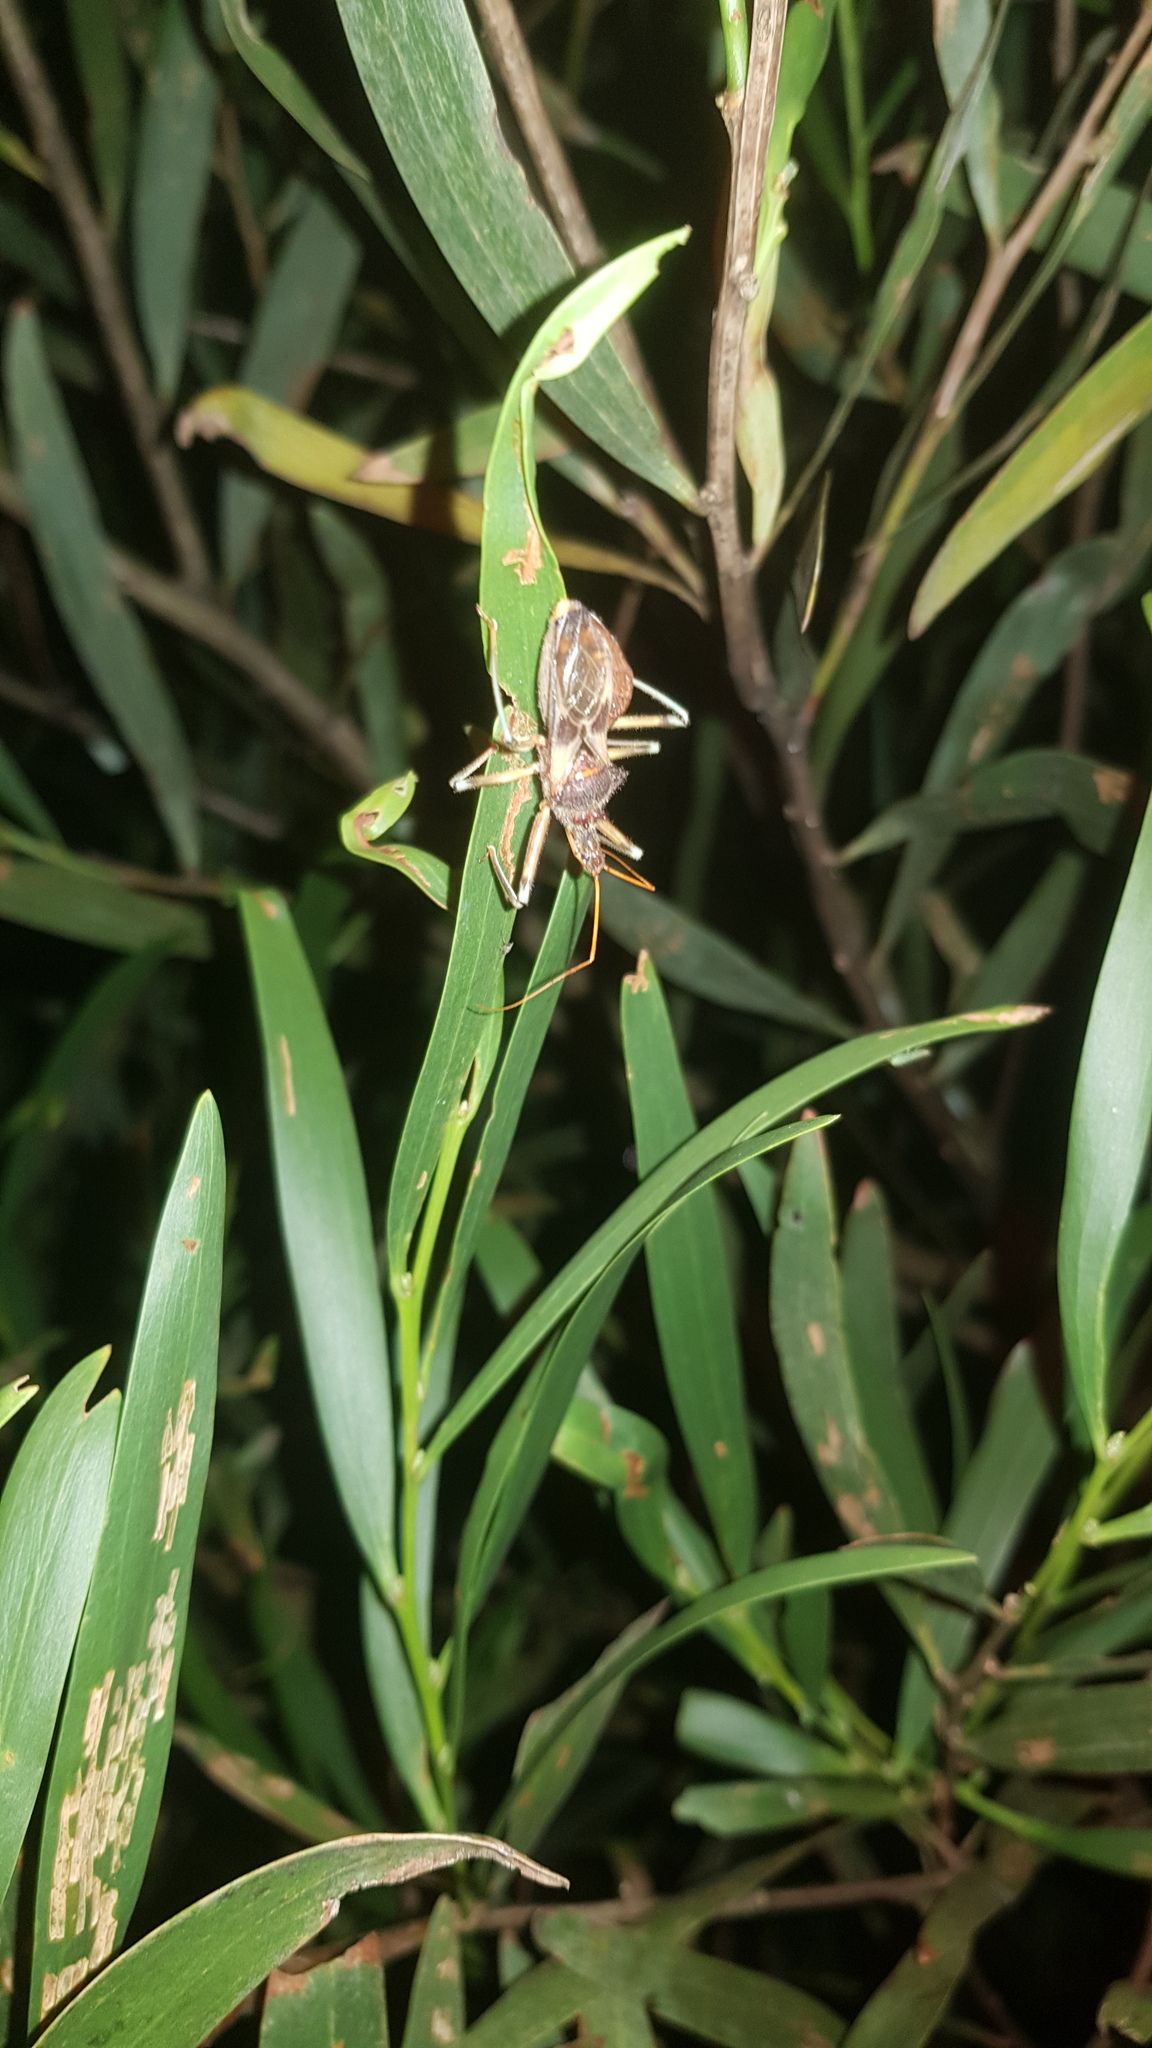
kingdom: Animalia
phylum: Arthropoda
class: Insecta
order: Hemiptera
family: Reduviidae
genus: Pristhesancus
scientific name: Pristhesancus plagipennis
